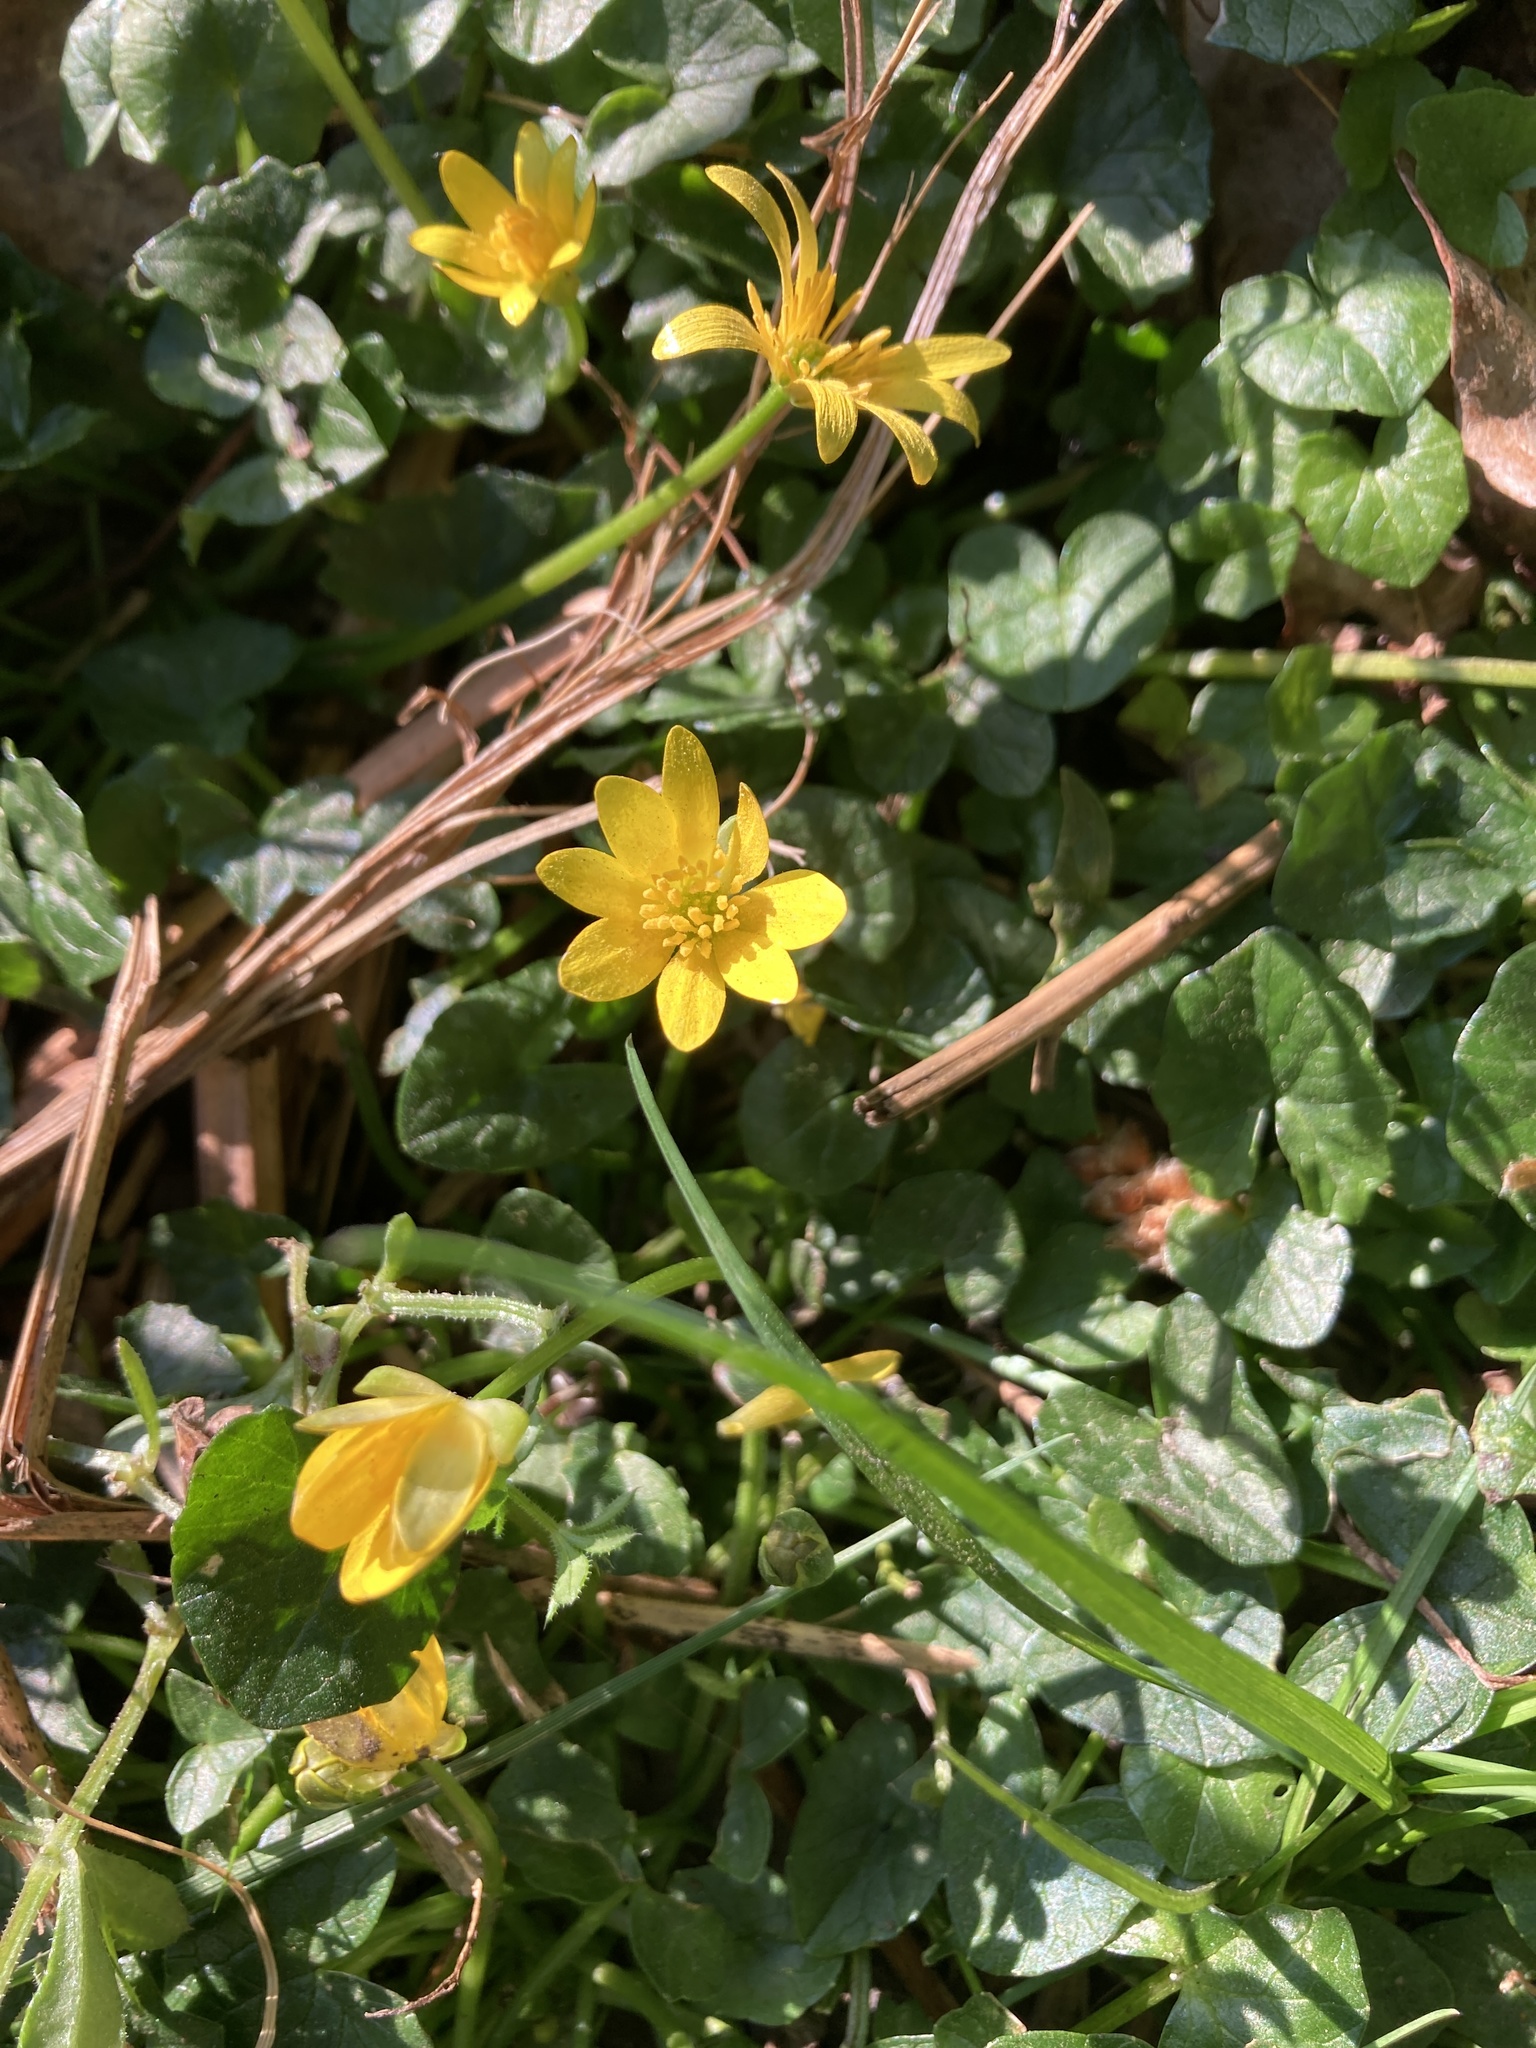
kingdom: Plantae
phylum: Tracheophyta
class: Magnoliopsida
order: Ranunculales
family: Ranunculaceae
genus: Ficaria
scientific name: Ficaria verna
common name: Lesser celandine
